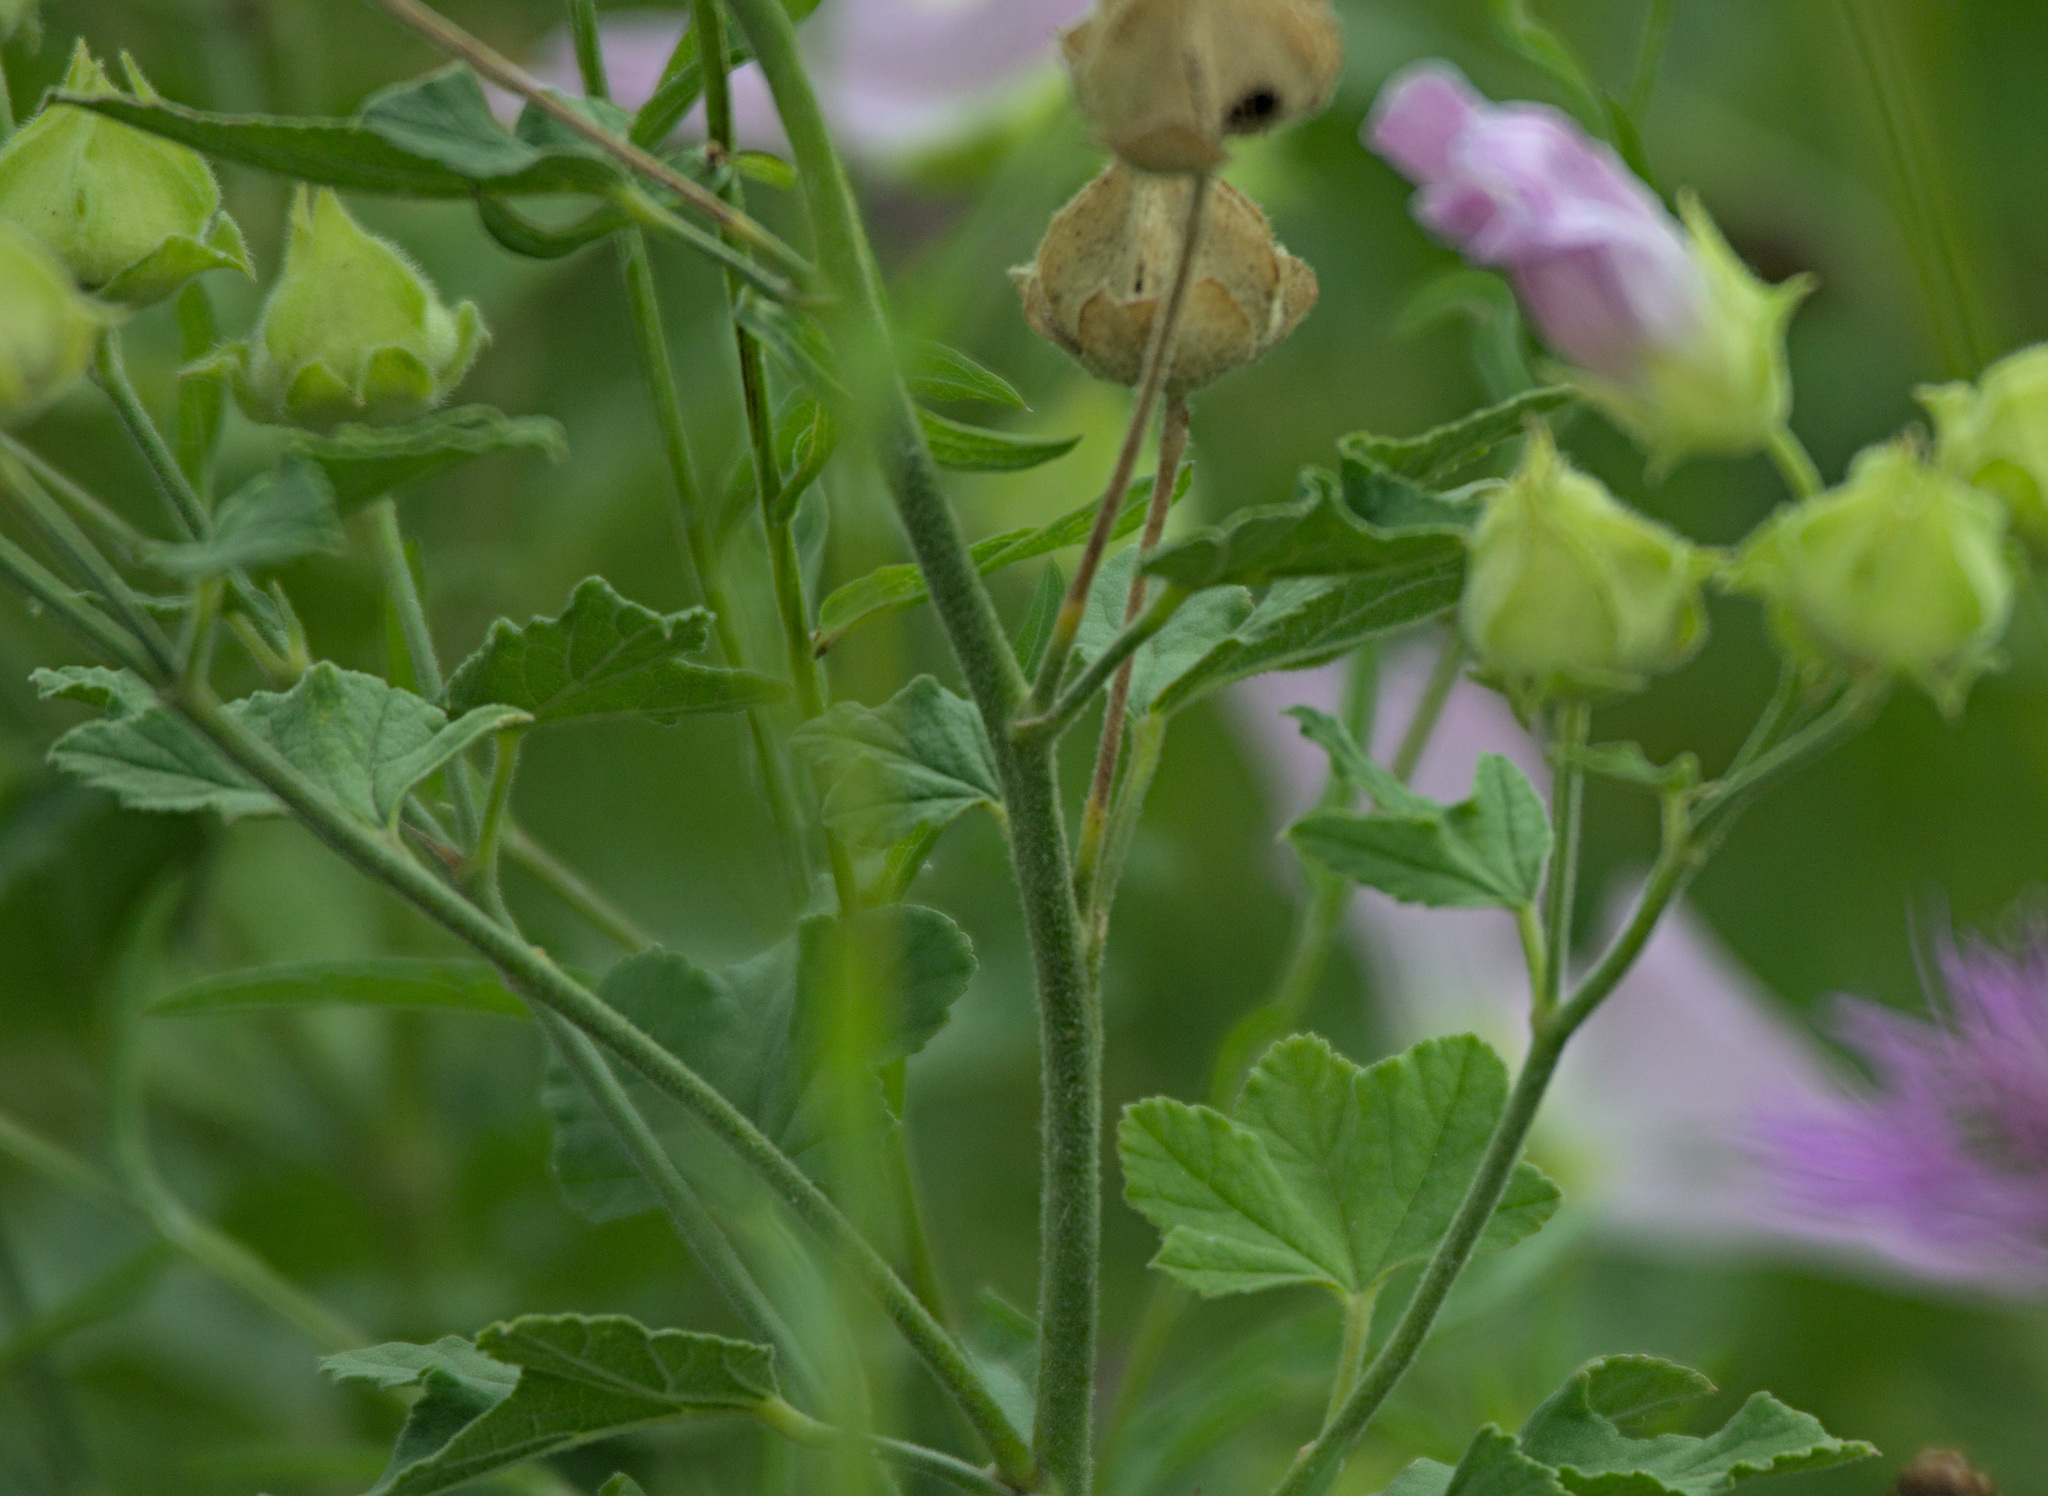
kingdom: Plantae
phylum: Tracheophyta
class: Magnoliopsida
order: Malvales
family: Malvaceae
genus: Malva
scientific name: Malva thuringiaca
